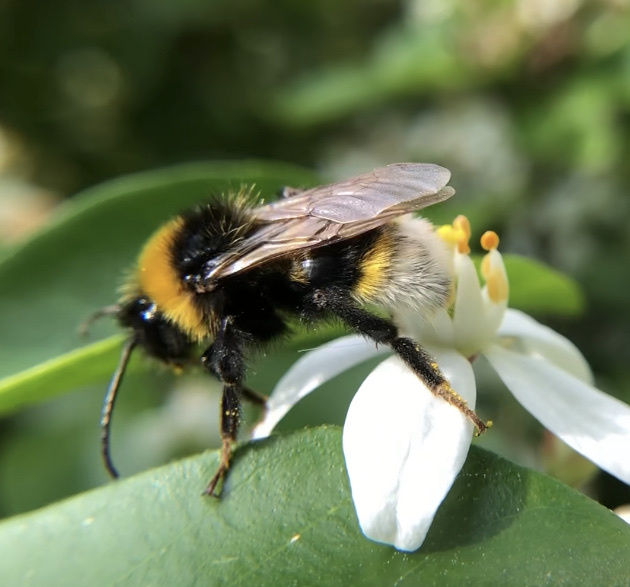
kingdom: Animalia
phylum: Arthropoda
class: Insecta
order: Hymenoptera
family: Apidae
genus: Bombus
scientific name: Bombus vestalis
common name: Vestal cuckoo bee
